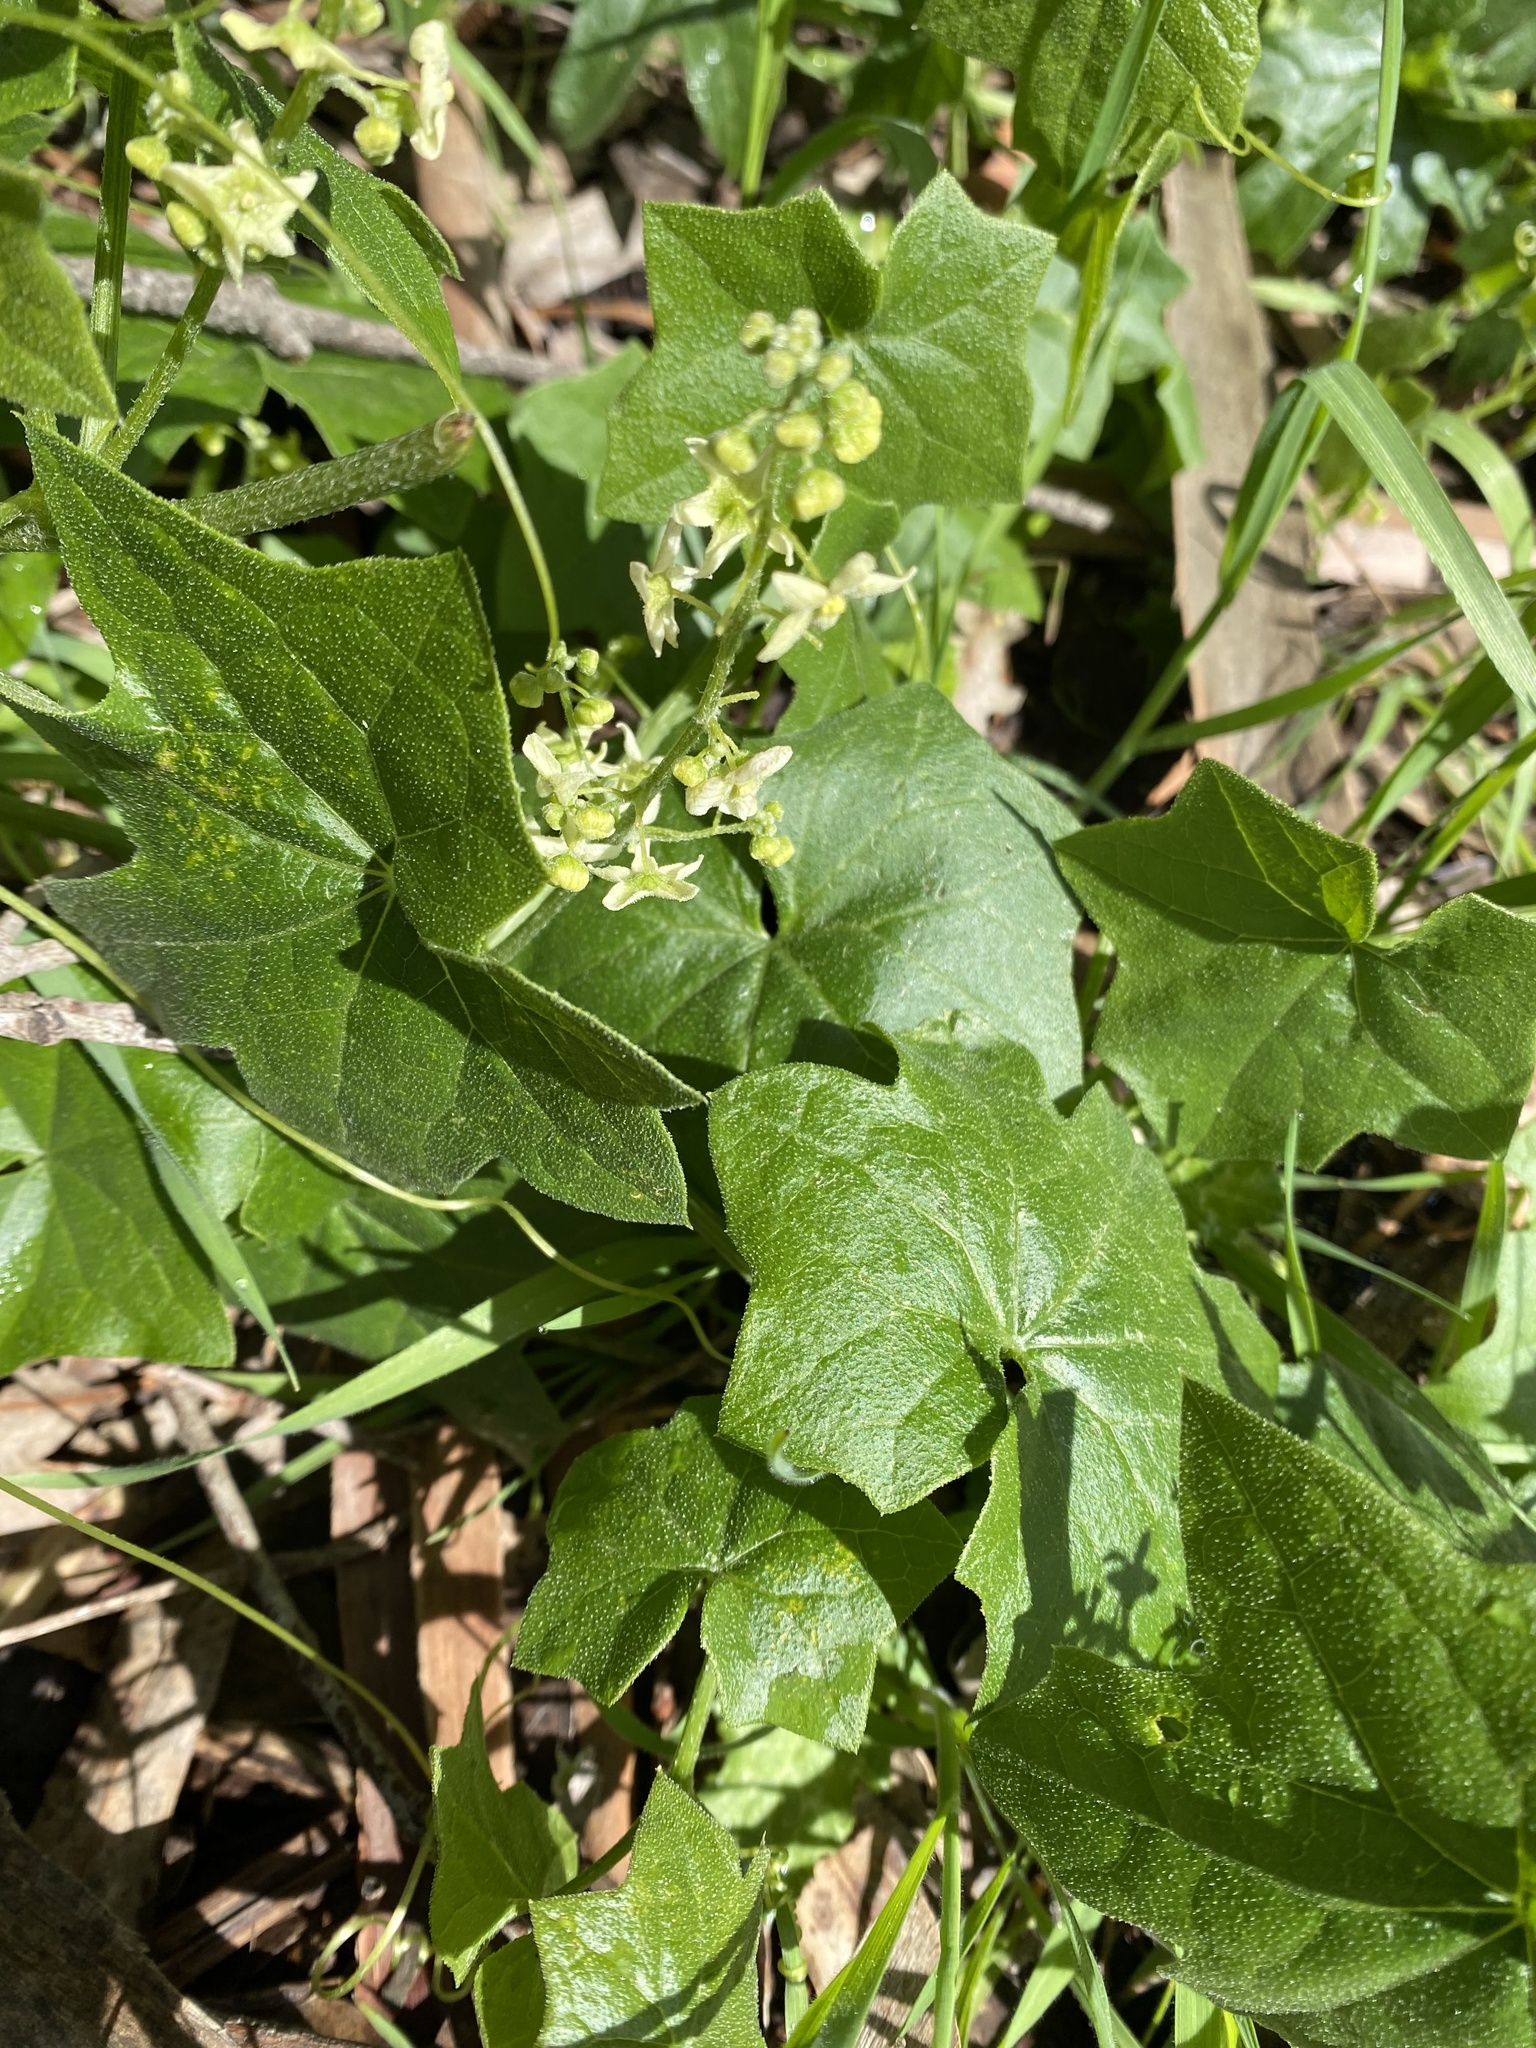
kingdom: Plantae
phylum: Tracheophyta
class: Magnoliopsida
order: Cucurbitales
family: Cucurbitaceae
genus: Marah
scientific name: Marah fabacea
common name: California manroot
